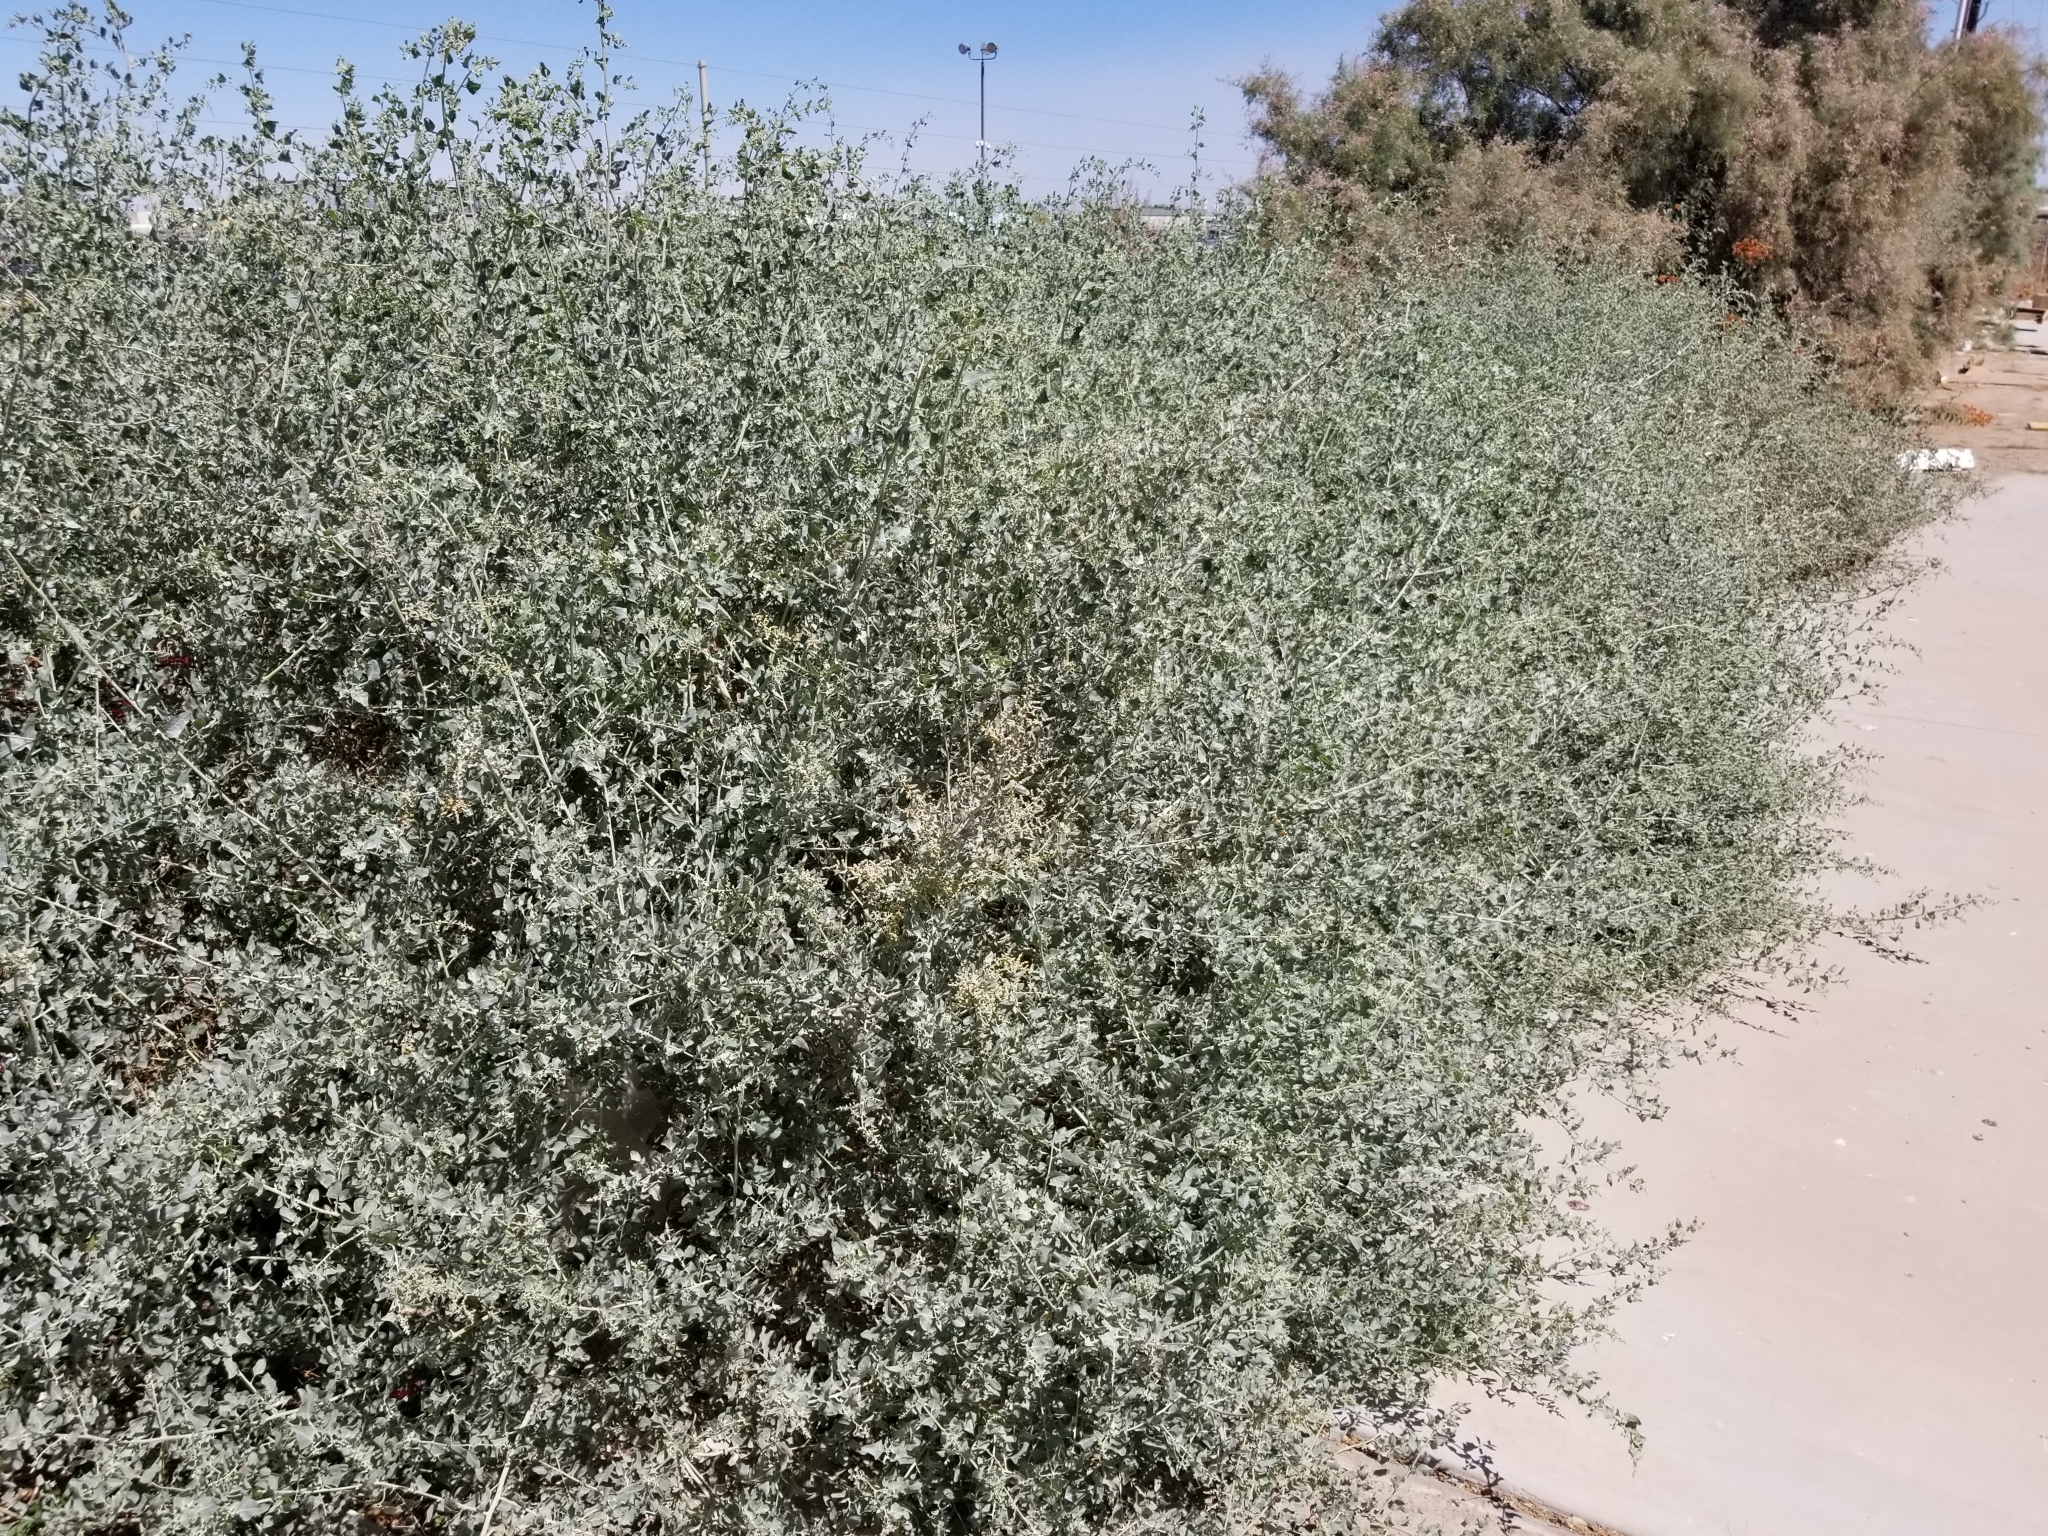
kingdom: Plantae
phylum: Tracheophyta
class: Magnoliopsida
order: Caryophyllales
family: Amaranthaceae
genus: Atriplex
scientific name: Atriplex lentiformis
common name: Big saltbush
